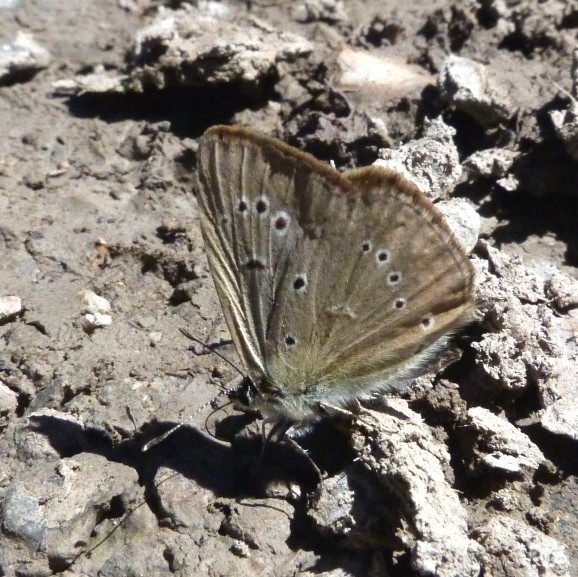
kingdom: Animalia
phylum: Arthropoda
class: Insecta
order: Lepidoptera
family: Lycaenidae
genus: Polyommatus
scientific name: Polyommatus ripartii
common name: Ripart's anomalous blue
